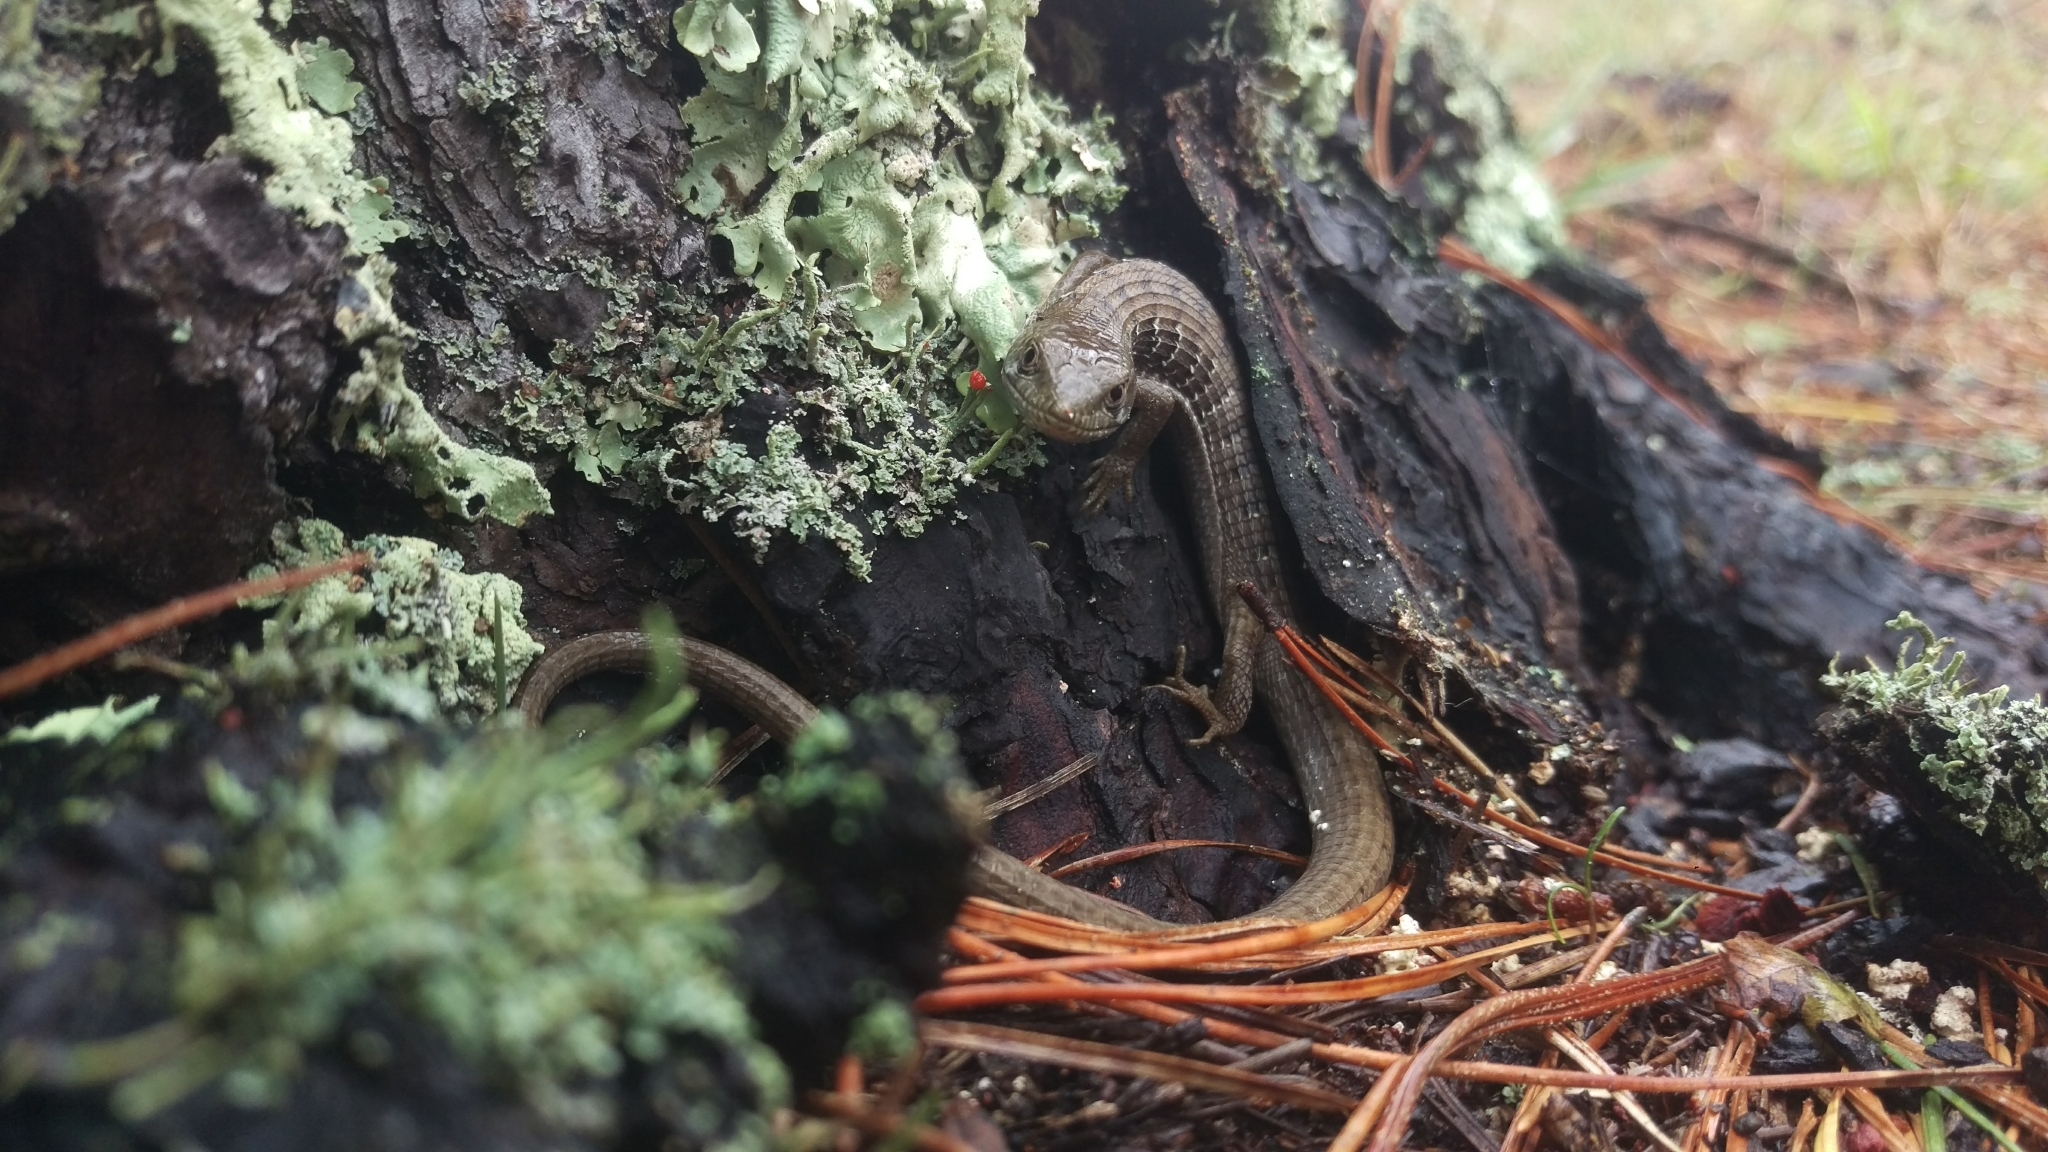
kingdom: Animalia
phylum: Chordata
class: Squamata
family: Anguidae
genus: Elgaria
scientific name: Elgaria multicarinata
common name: Southern alligator lizard
